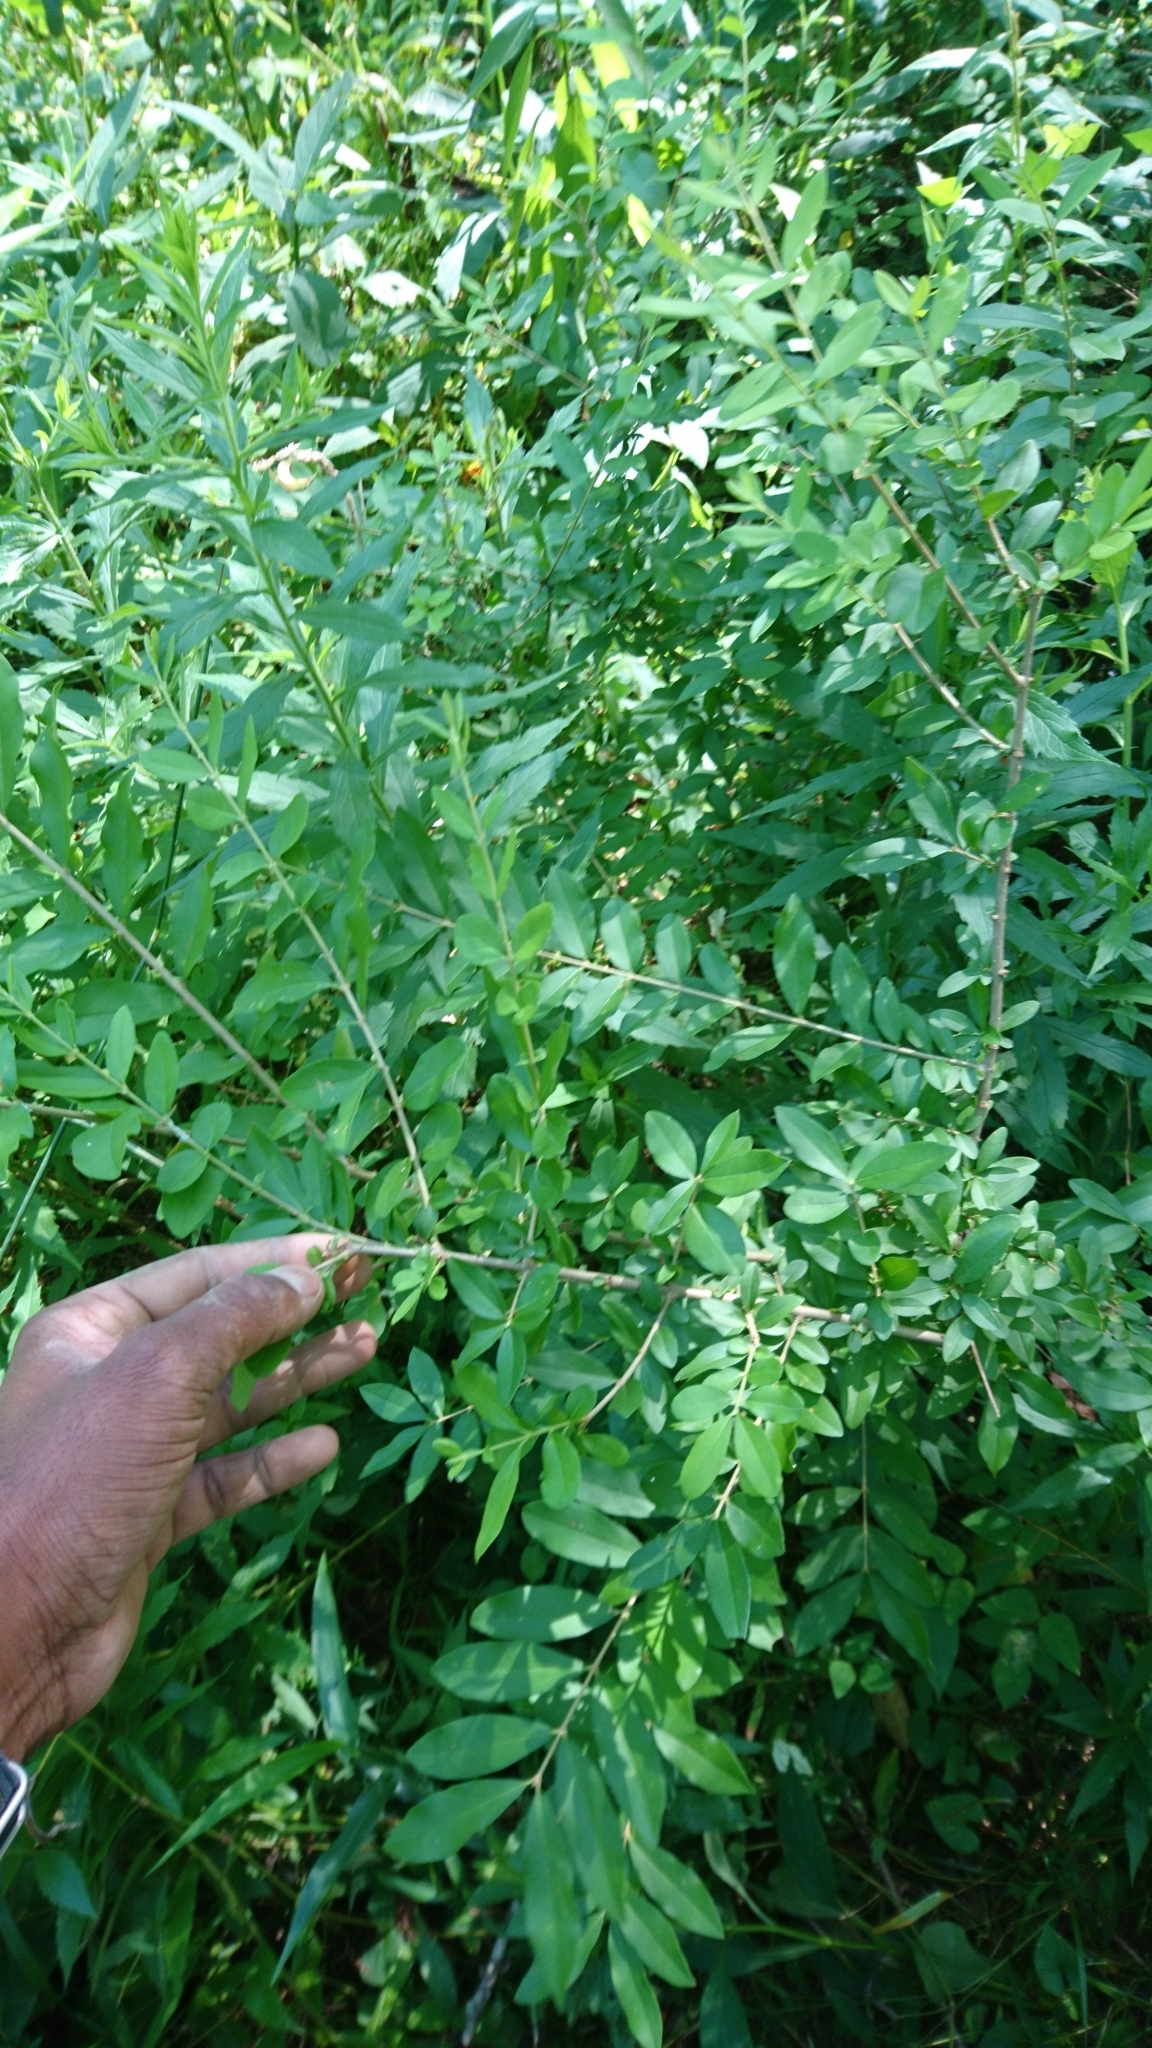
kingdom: Plantae
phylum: Tracheophyta
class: Magnoliopsida
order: Lamiales
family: Oleaceae
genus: Ligustrum
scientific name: Ligustrum obtusifolium
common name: Border privet
